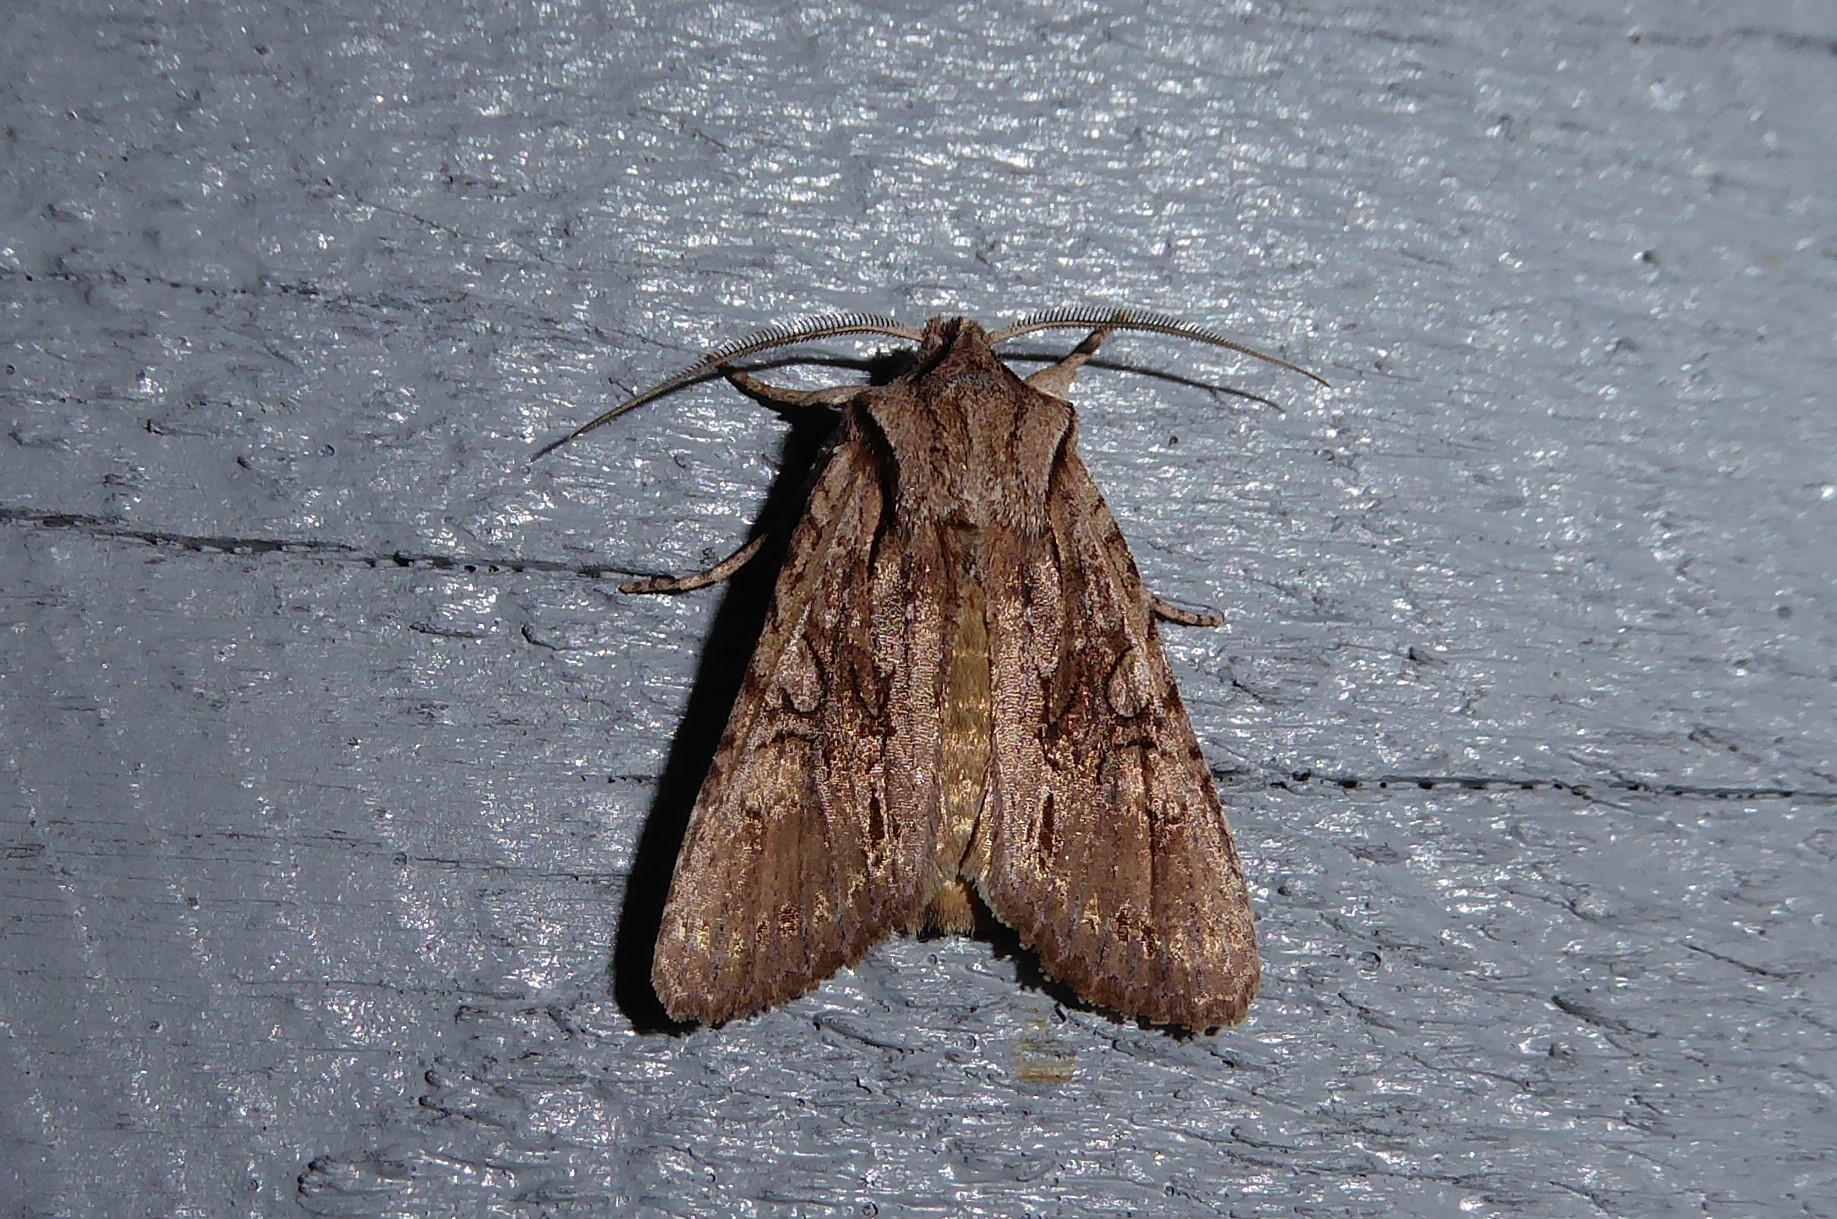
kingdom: Animalia
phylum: Arthropoda
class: Insecta
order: Lepidoptera
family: Noctuidae
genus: Ichneutica
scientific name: Ichneutica
